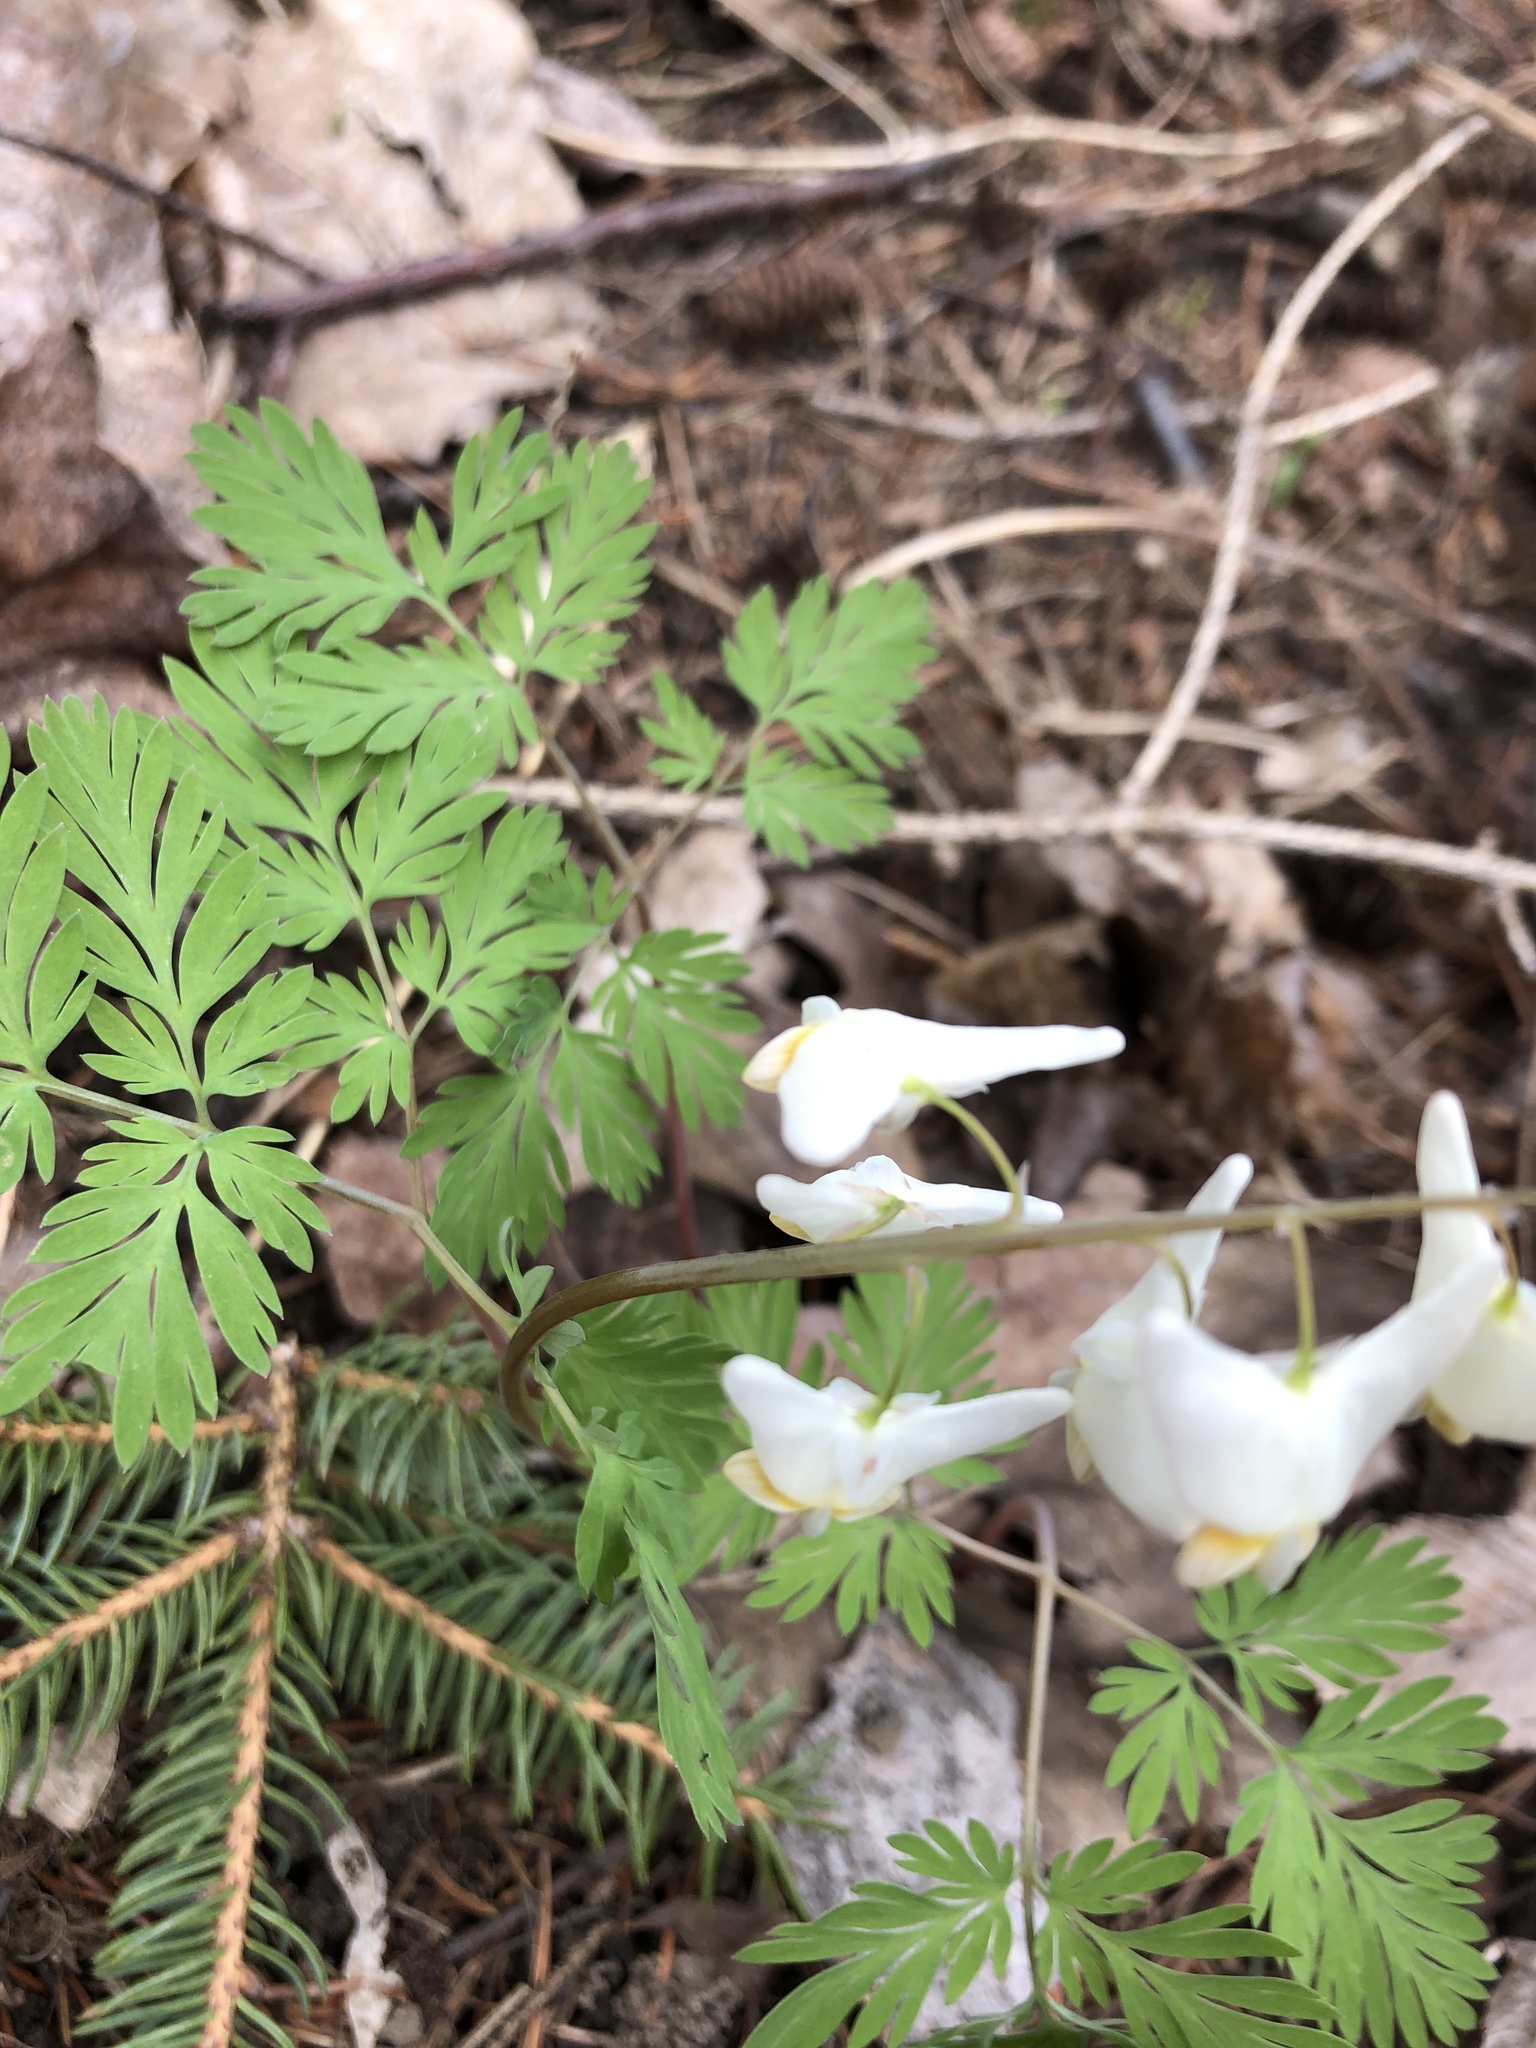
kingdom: Plantae
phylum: Tracheophyta
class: Magnoliopsida
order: Ranunculales
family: Papaveraceae
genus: Dicentra
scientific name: Dicentra cucullaria
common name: Dutchman's breeches
